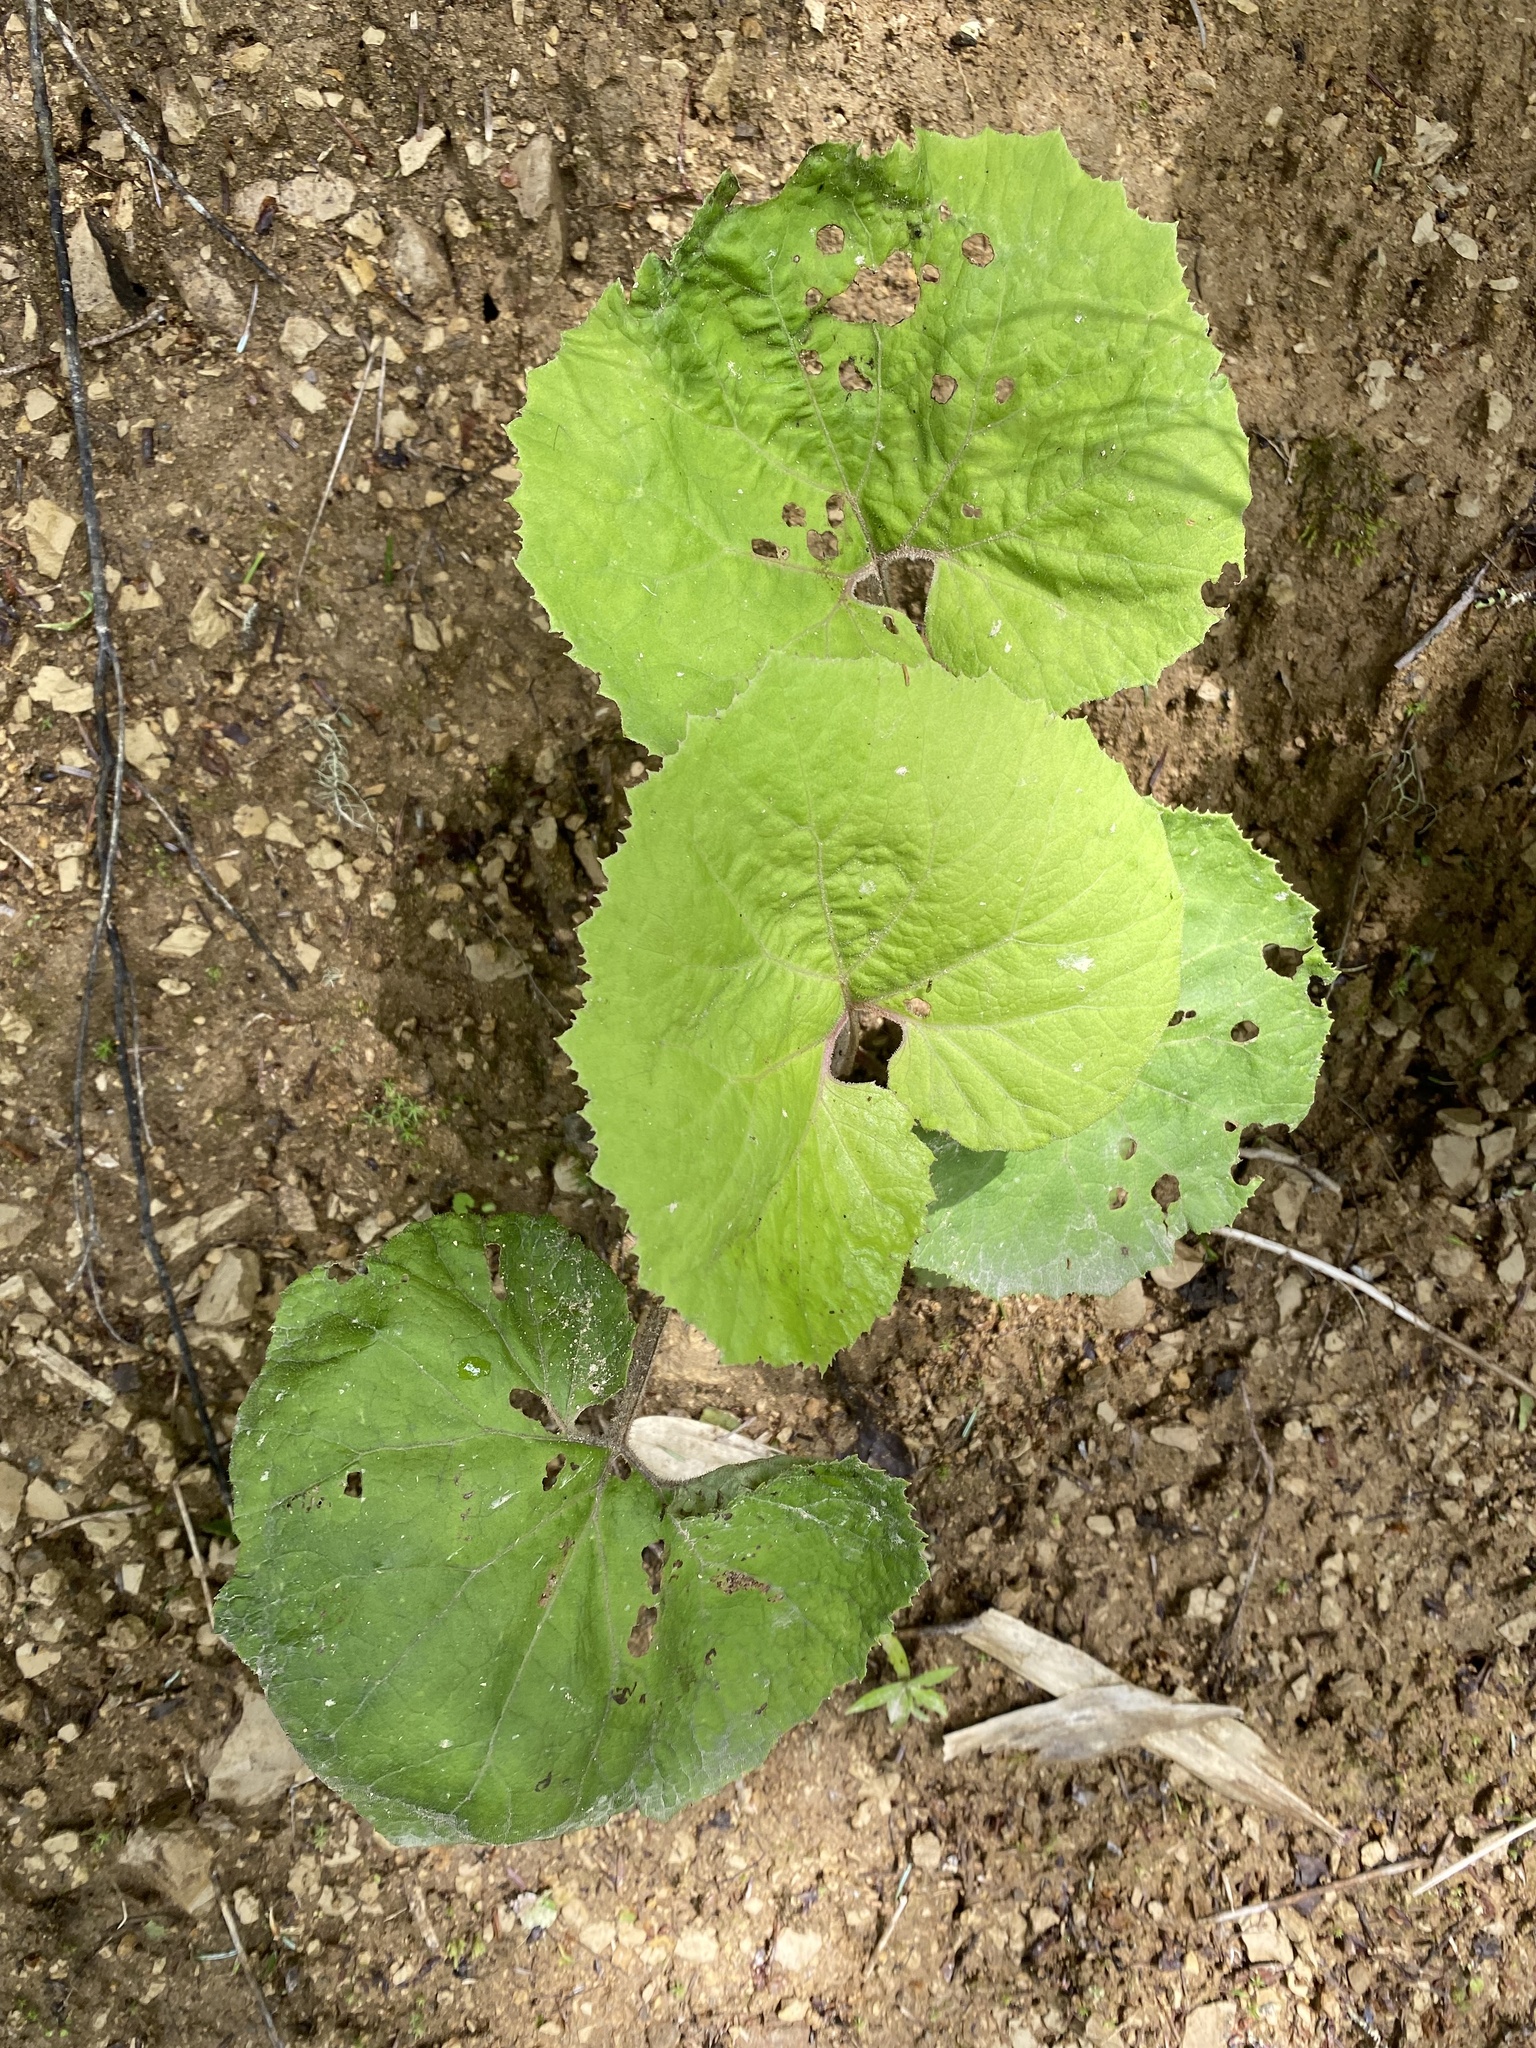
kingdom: Plantae
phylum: Tracheophyta
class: Magnoliopsida
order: Asterales
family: Asteraceae
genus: Petasites
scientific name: Petasites japonicus
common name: Giant butterbur
